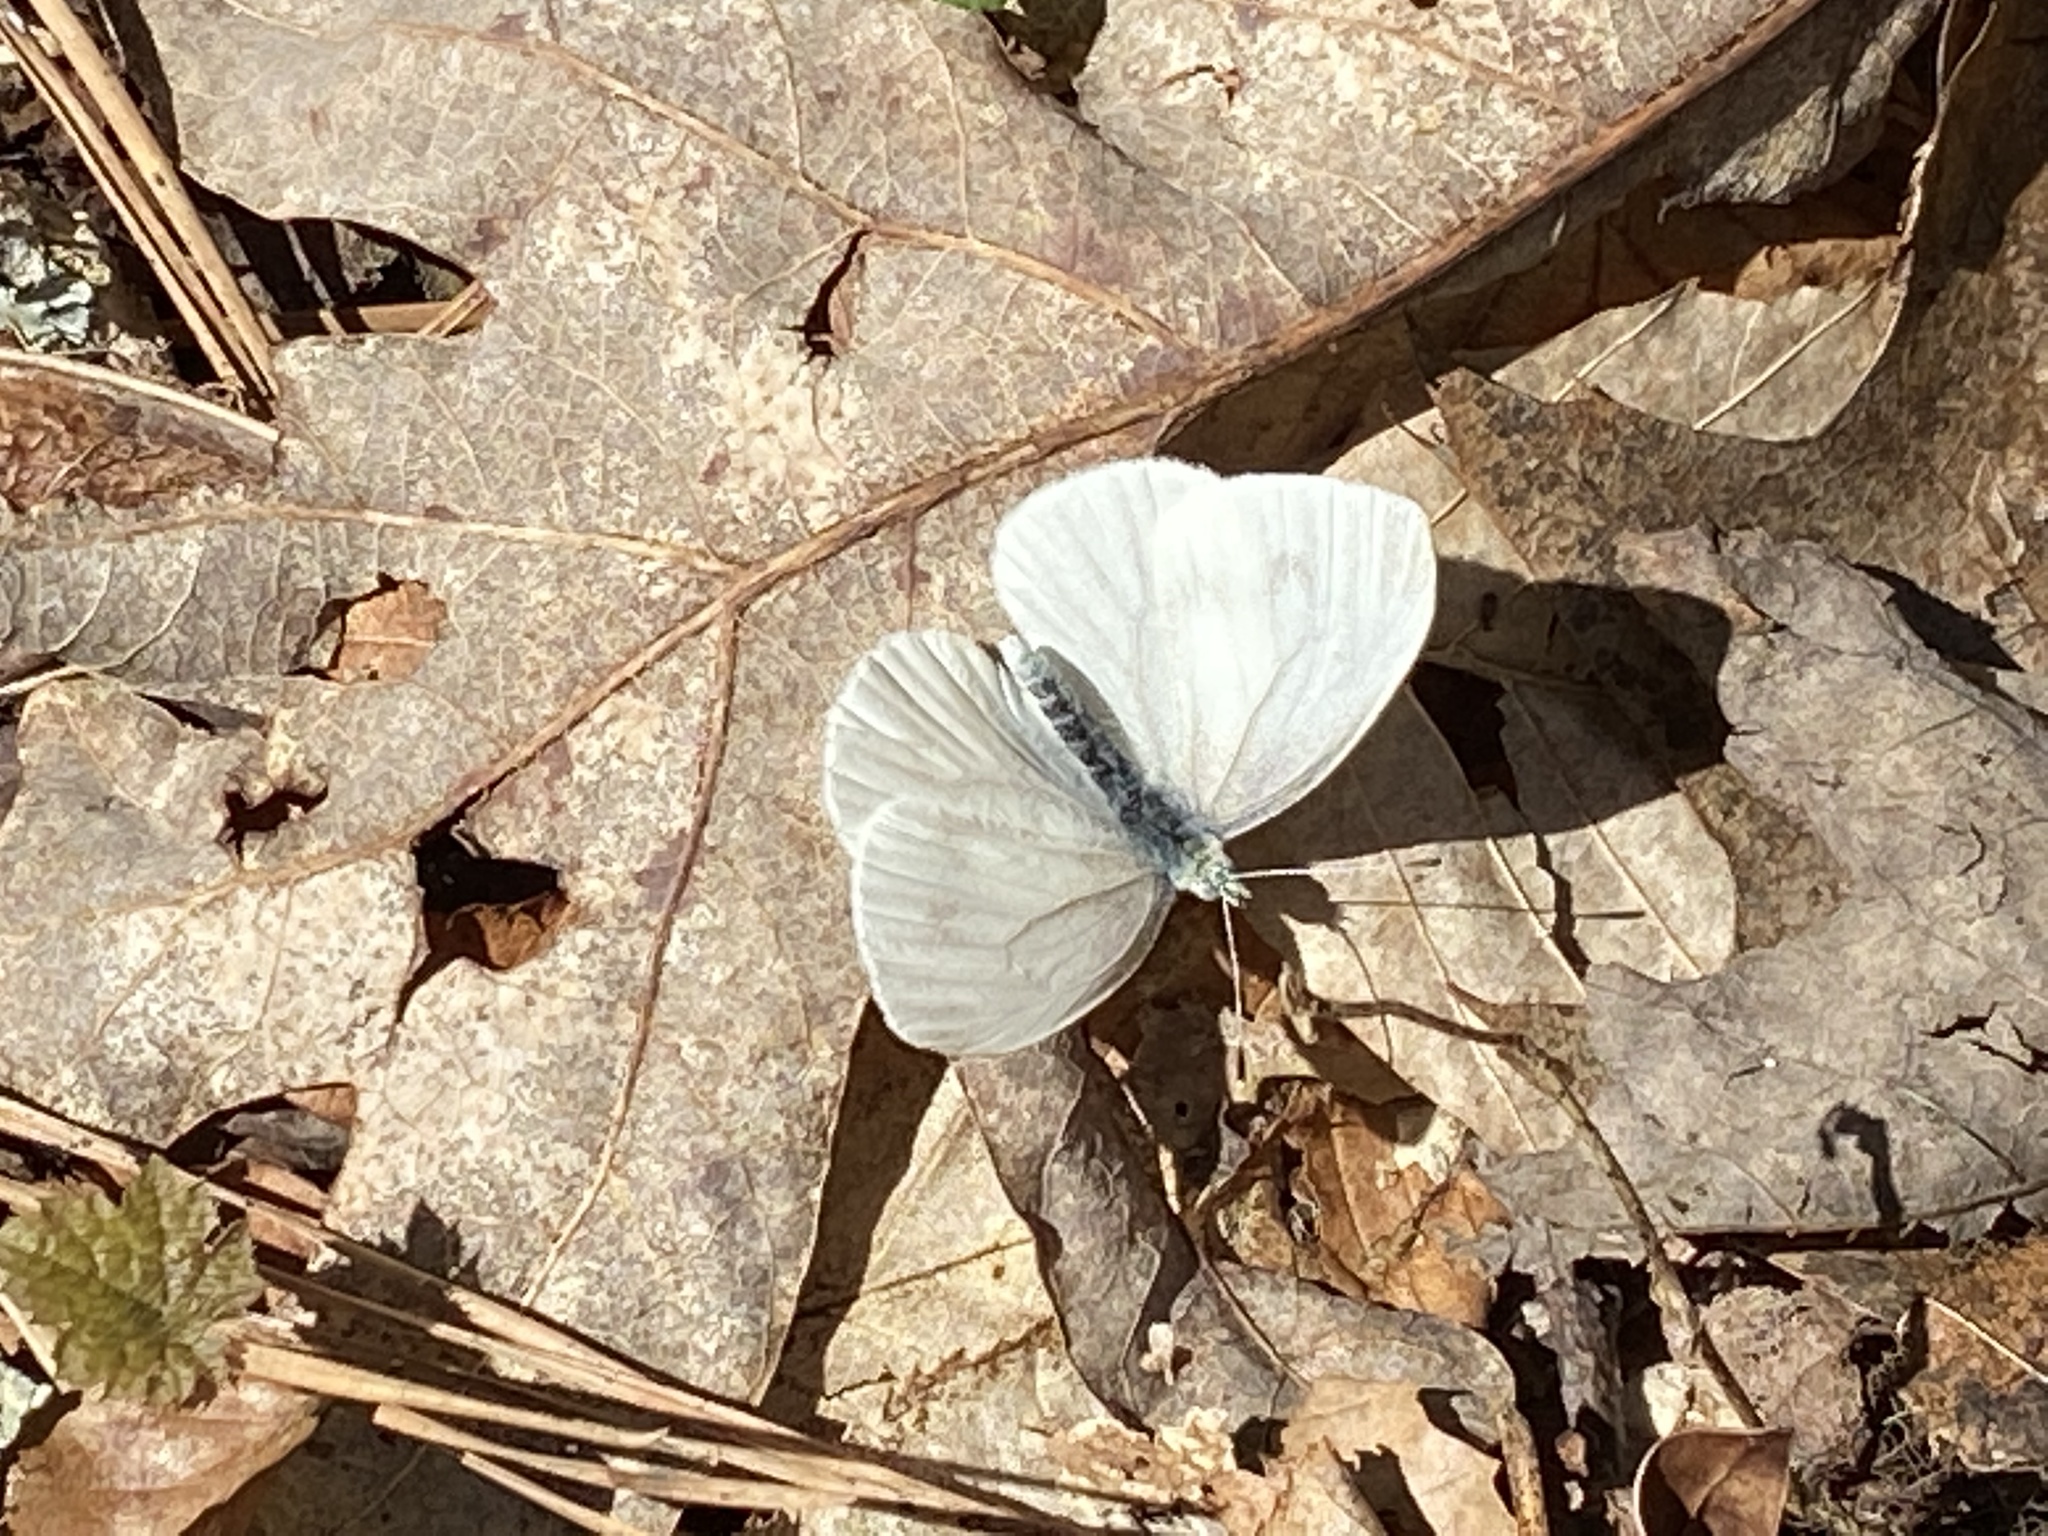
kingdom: Animalia
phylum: Arthropoda
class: Insecta
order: Lepidoptera
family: Pieridae
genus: Pieris
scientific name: Pieris virginiensis
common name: West virginia white
